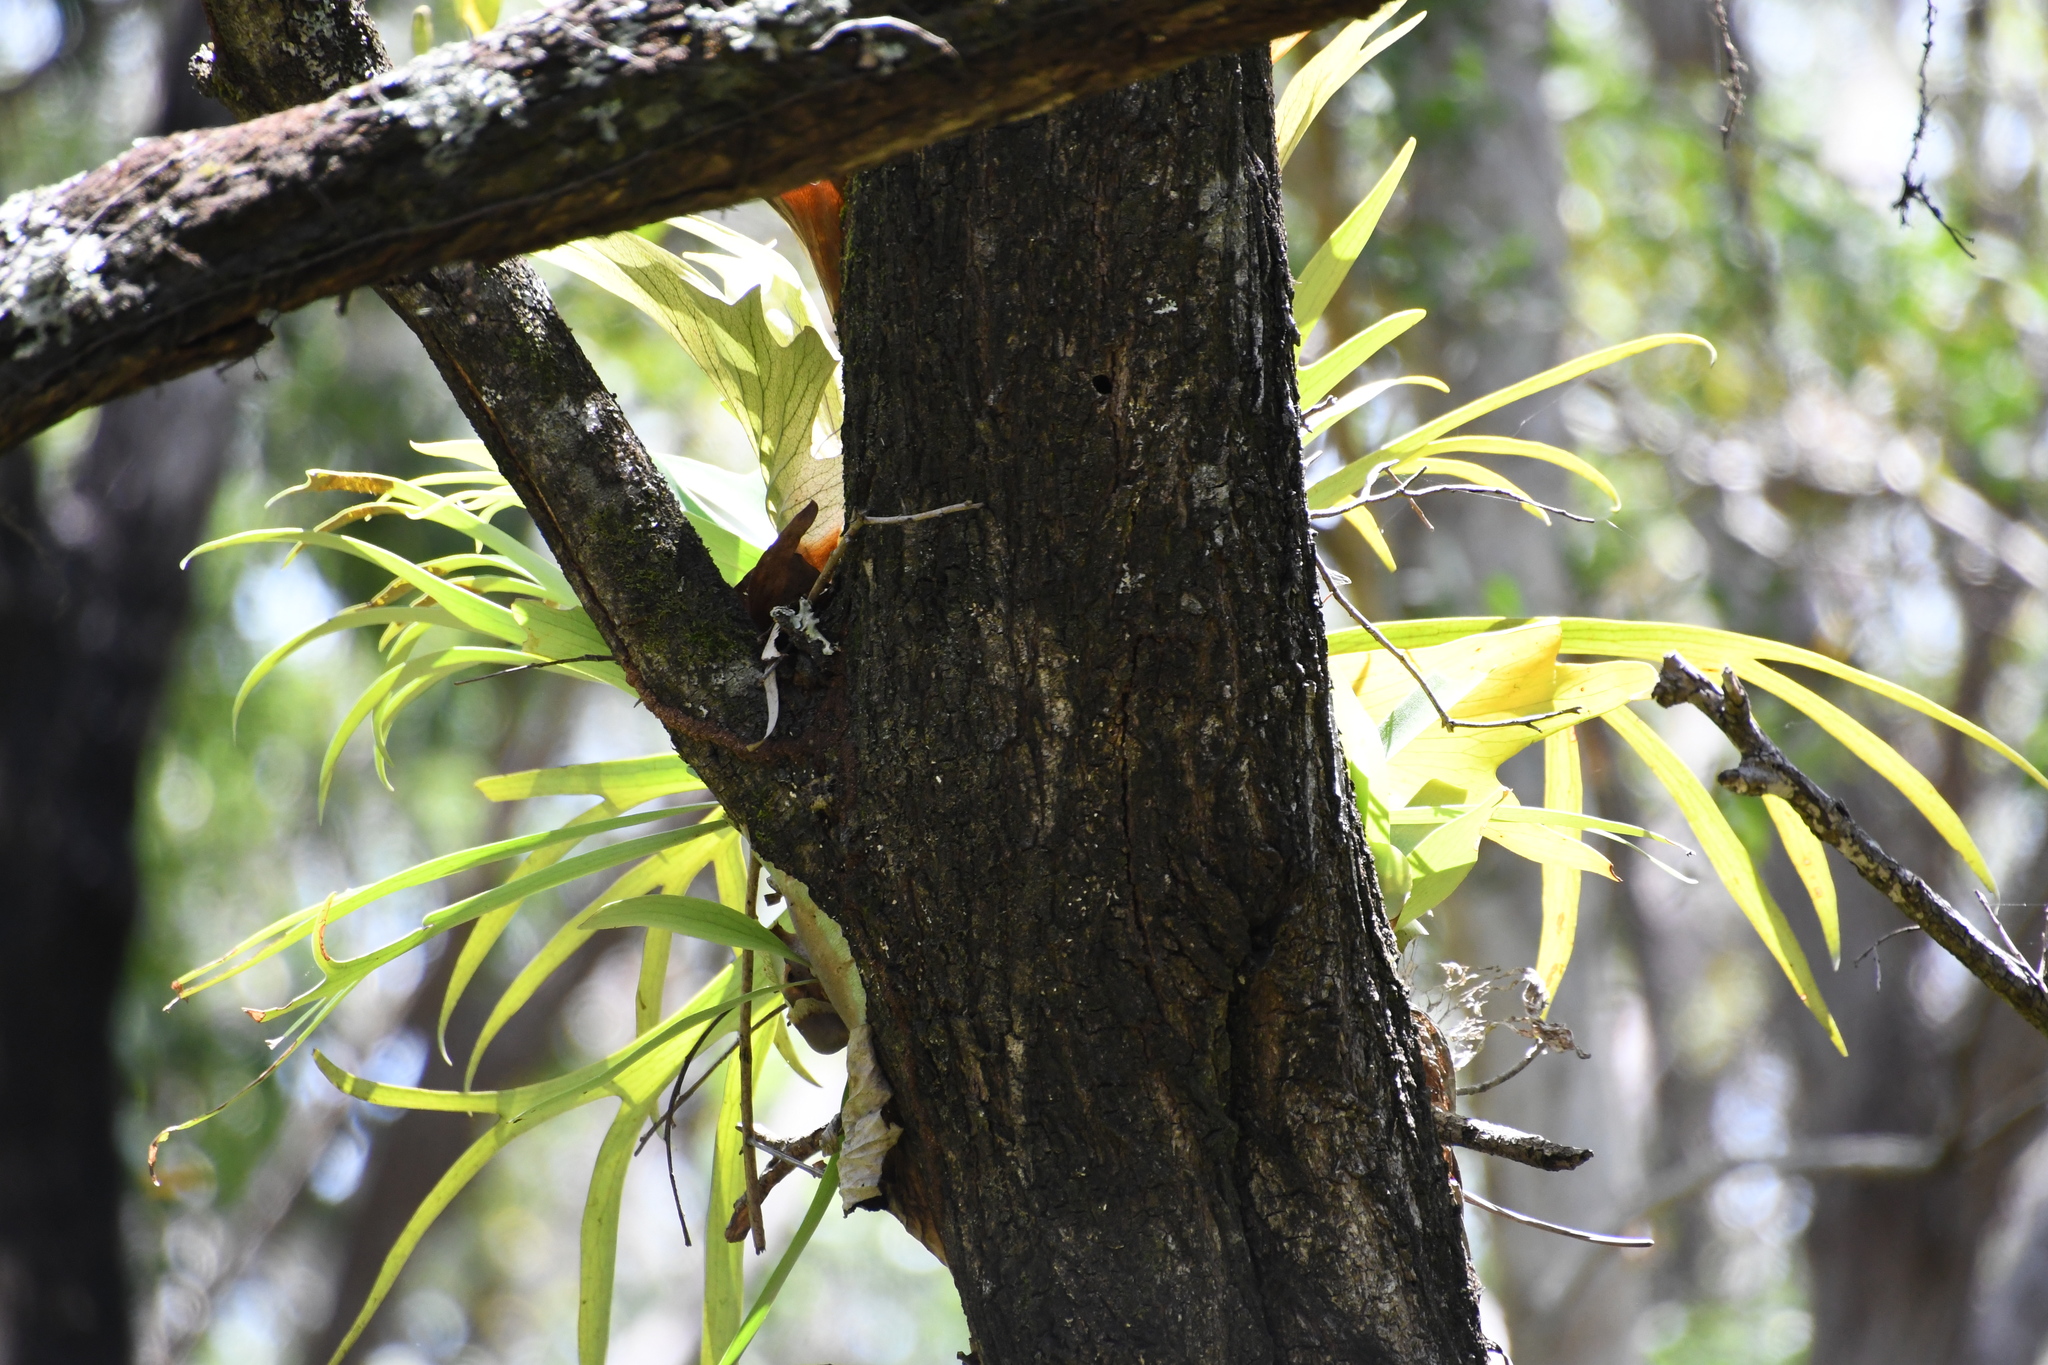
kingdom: Plantae
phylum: Tracheophyta
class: Polypodiopsida
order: Polypodiales
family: Polypodiaceae
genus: Platycerium
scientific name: Platycerium bifurcatum
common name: Elkhorn fern
